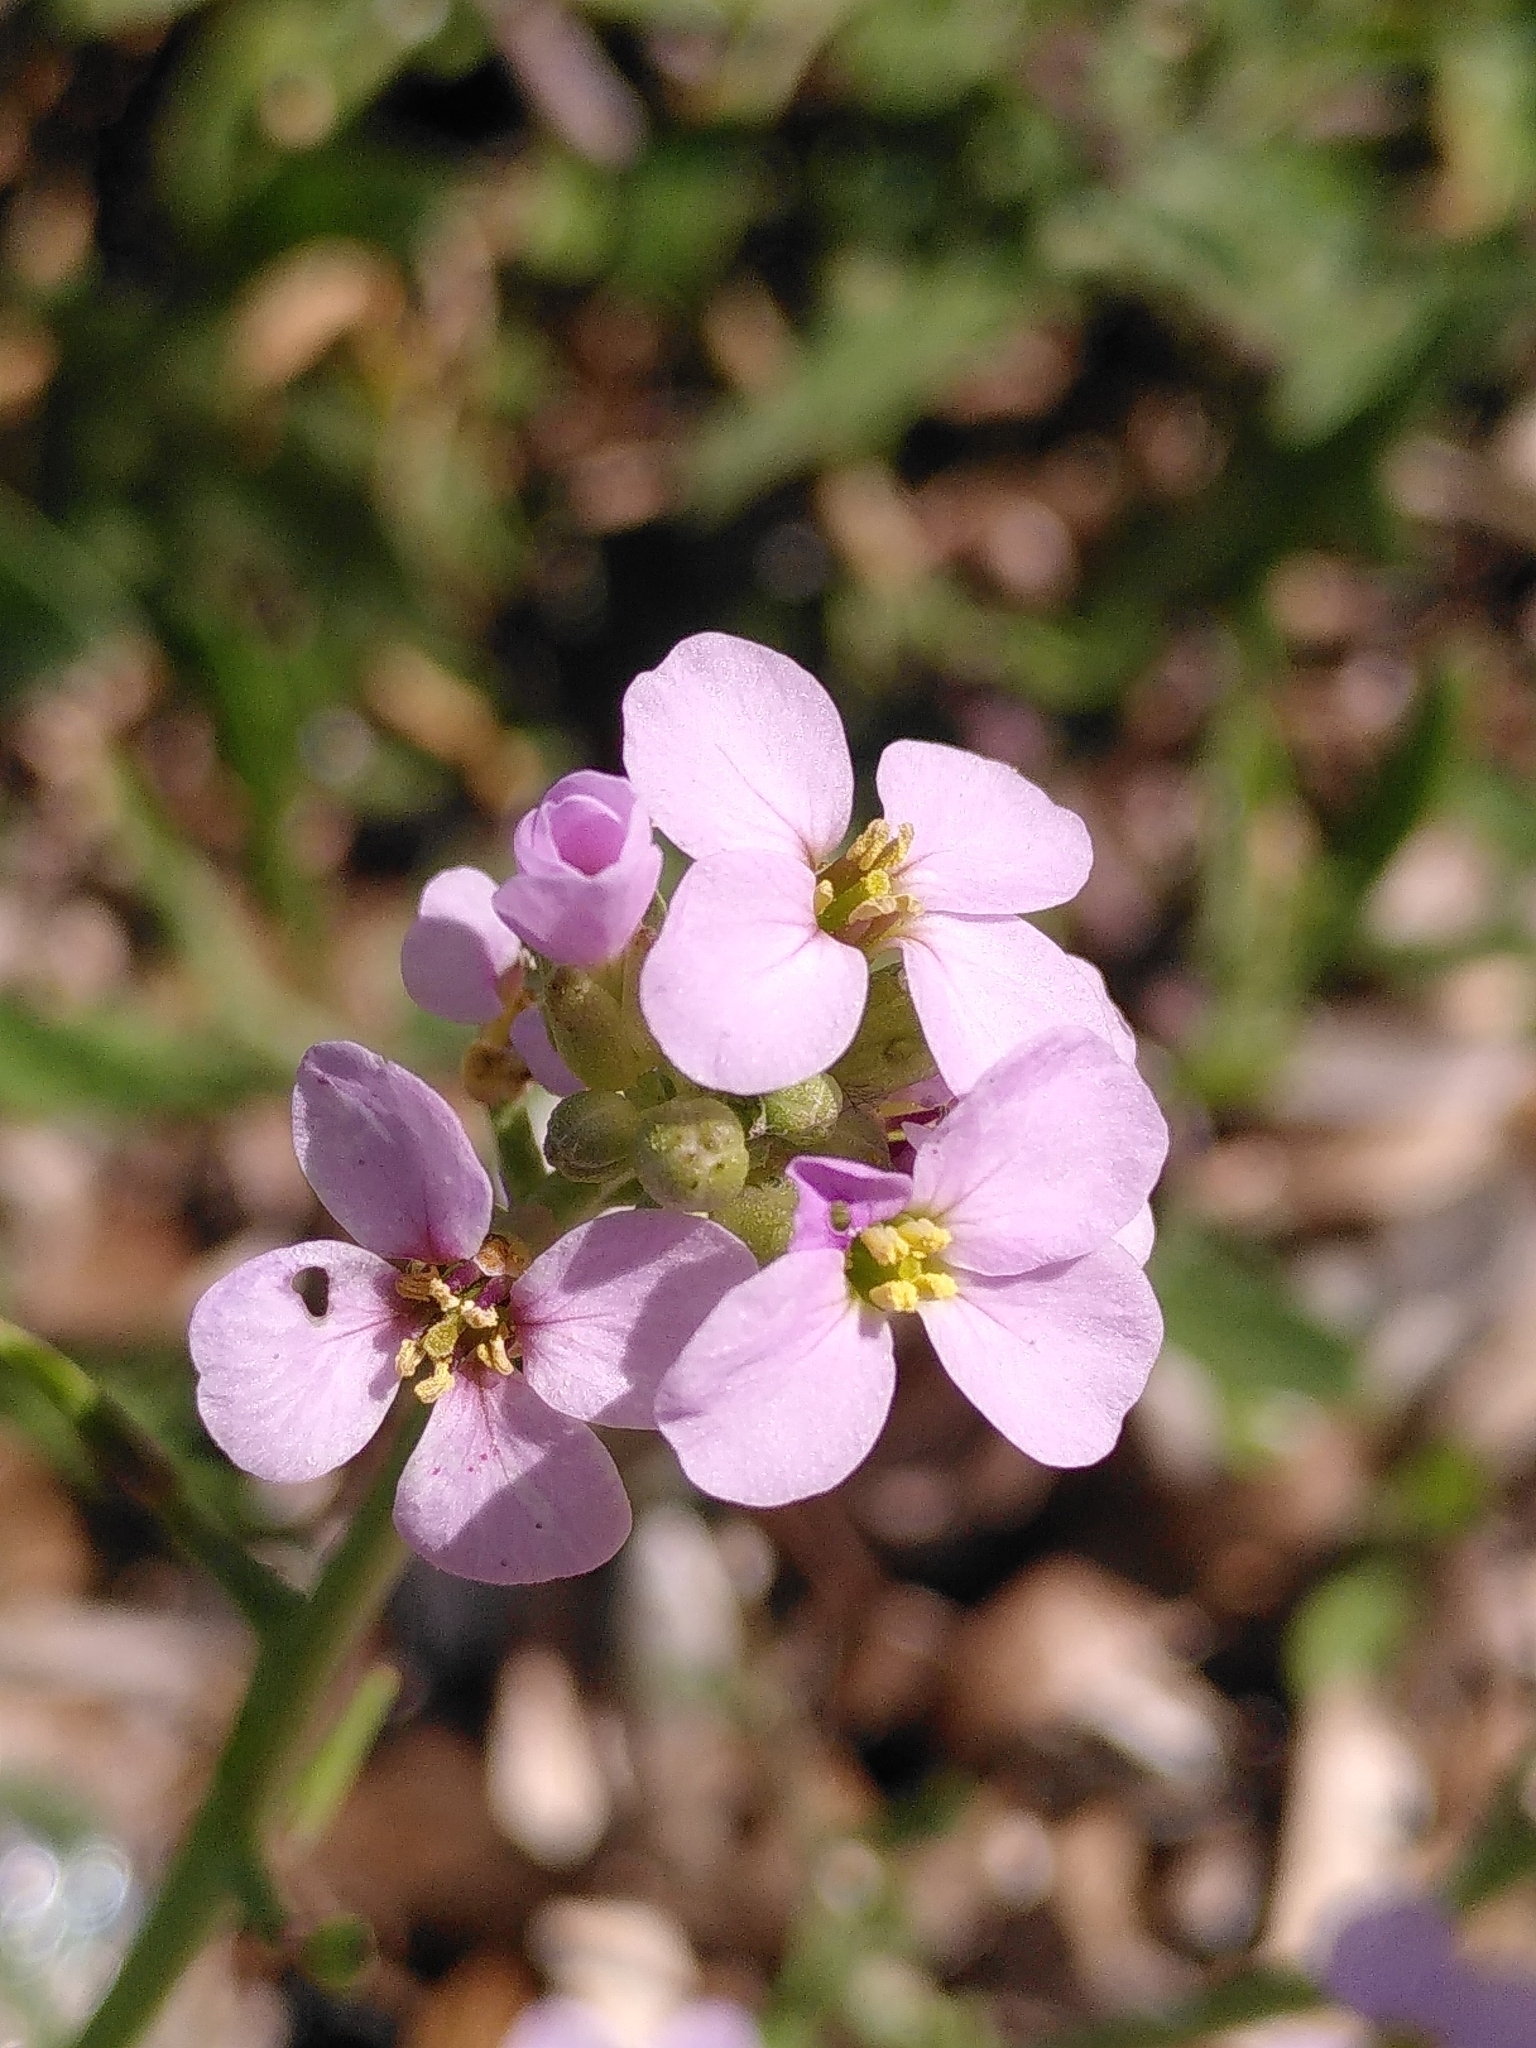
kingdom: Plantae
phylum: Tracheophyta
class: Magnoliopsida
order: Brassicales
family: Brassicaceae
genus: Cakile
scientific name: Cakile maritima
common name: Sea rocket
